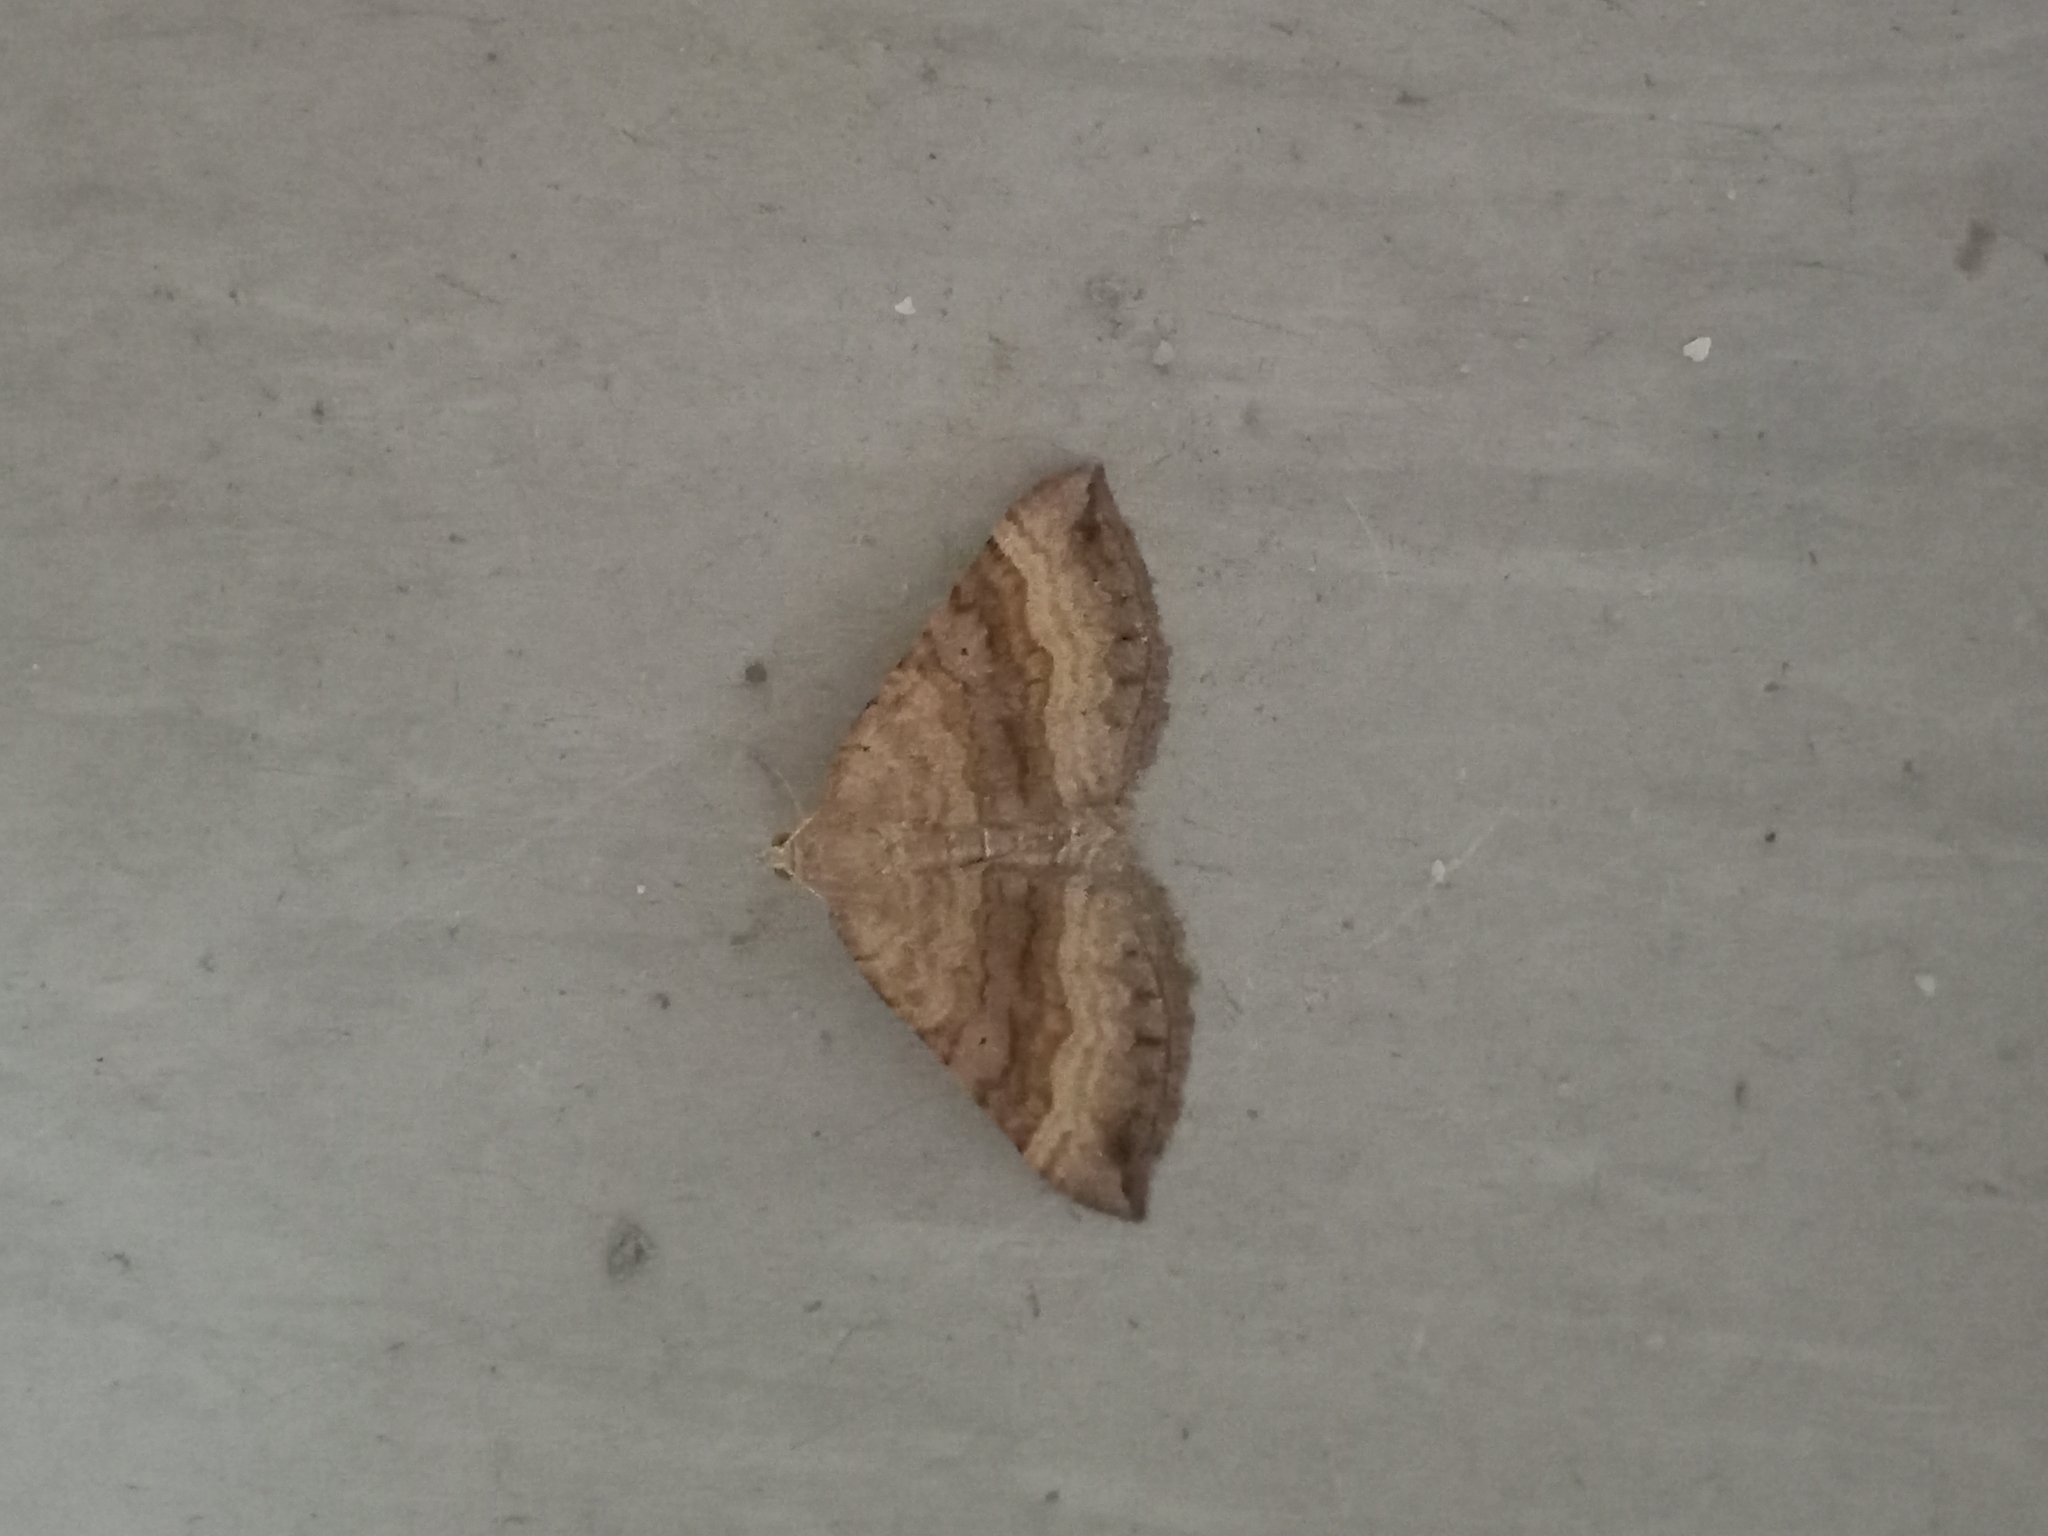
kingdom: Animalia
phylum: Arthropoda
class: Insecta
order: Lepidoptera
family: Geometridae
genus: Scotopteryx
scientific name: Scotopteryx chenopodiata
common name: Shaded broad-bar
